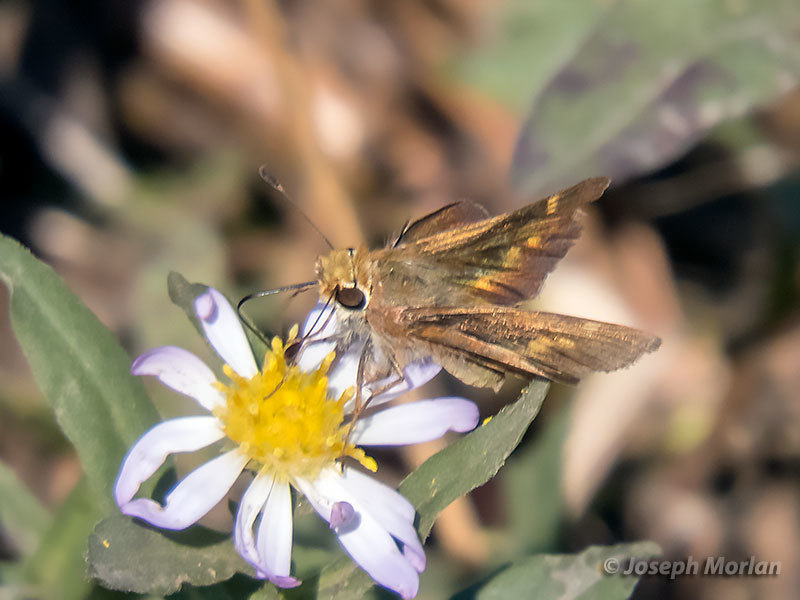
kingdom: Animalia
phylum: Arthropoda
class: Insecta
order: Lepidoptera
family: Hesperiidae
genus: Lon
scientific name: Lon melane
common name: Umber skipper
